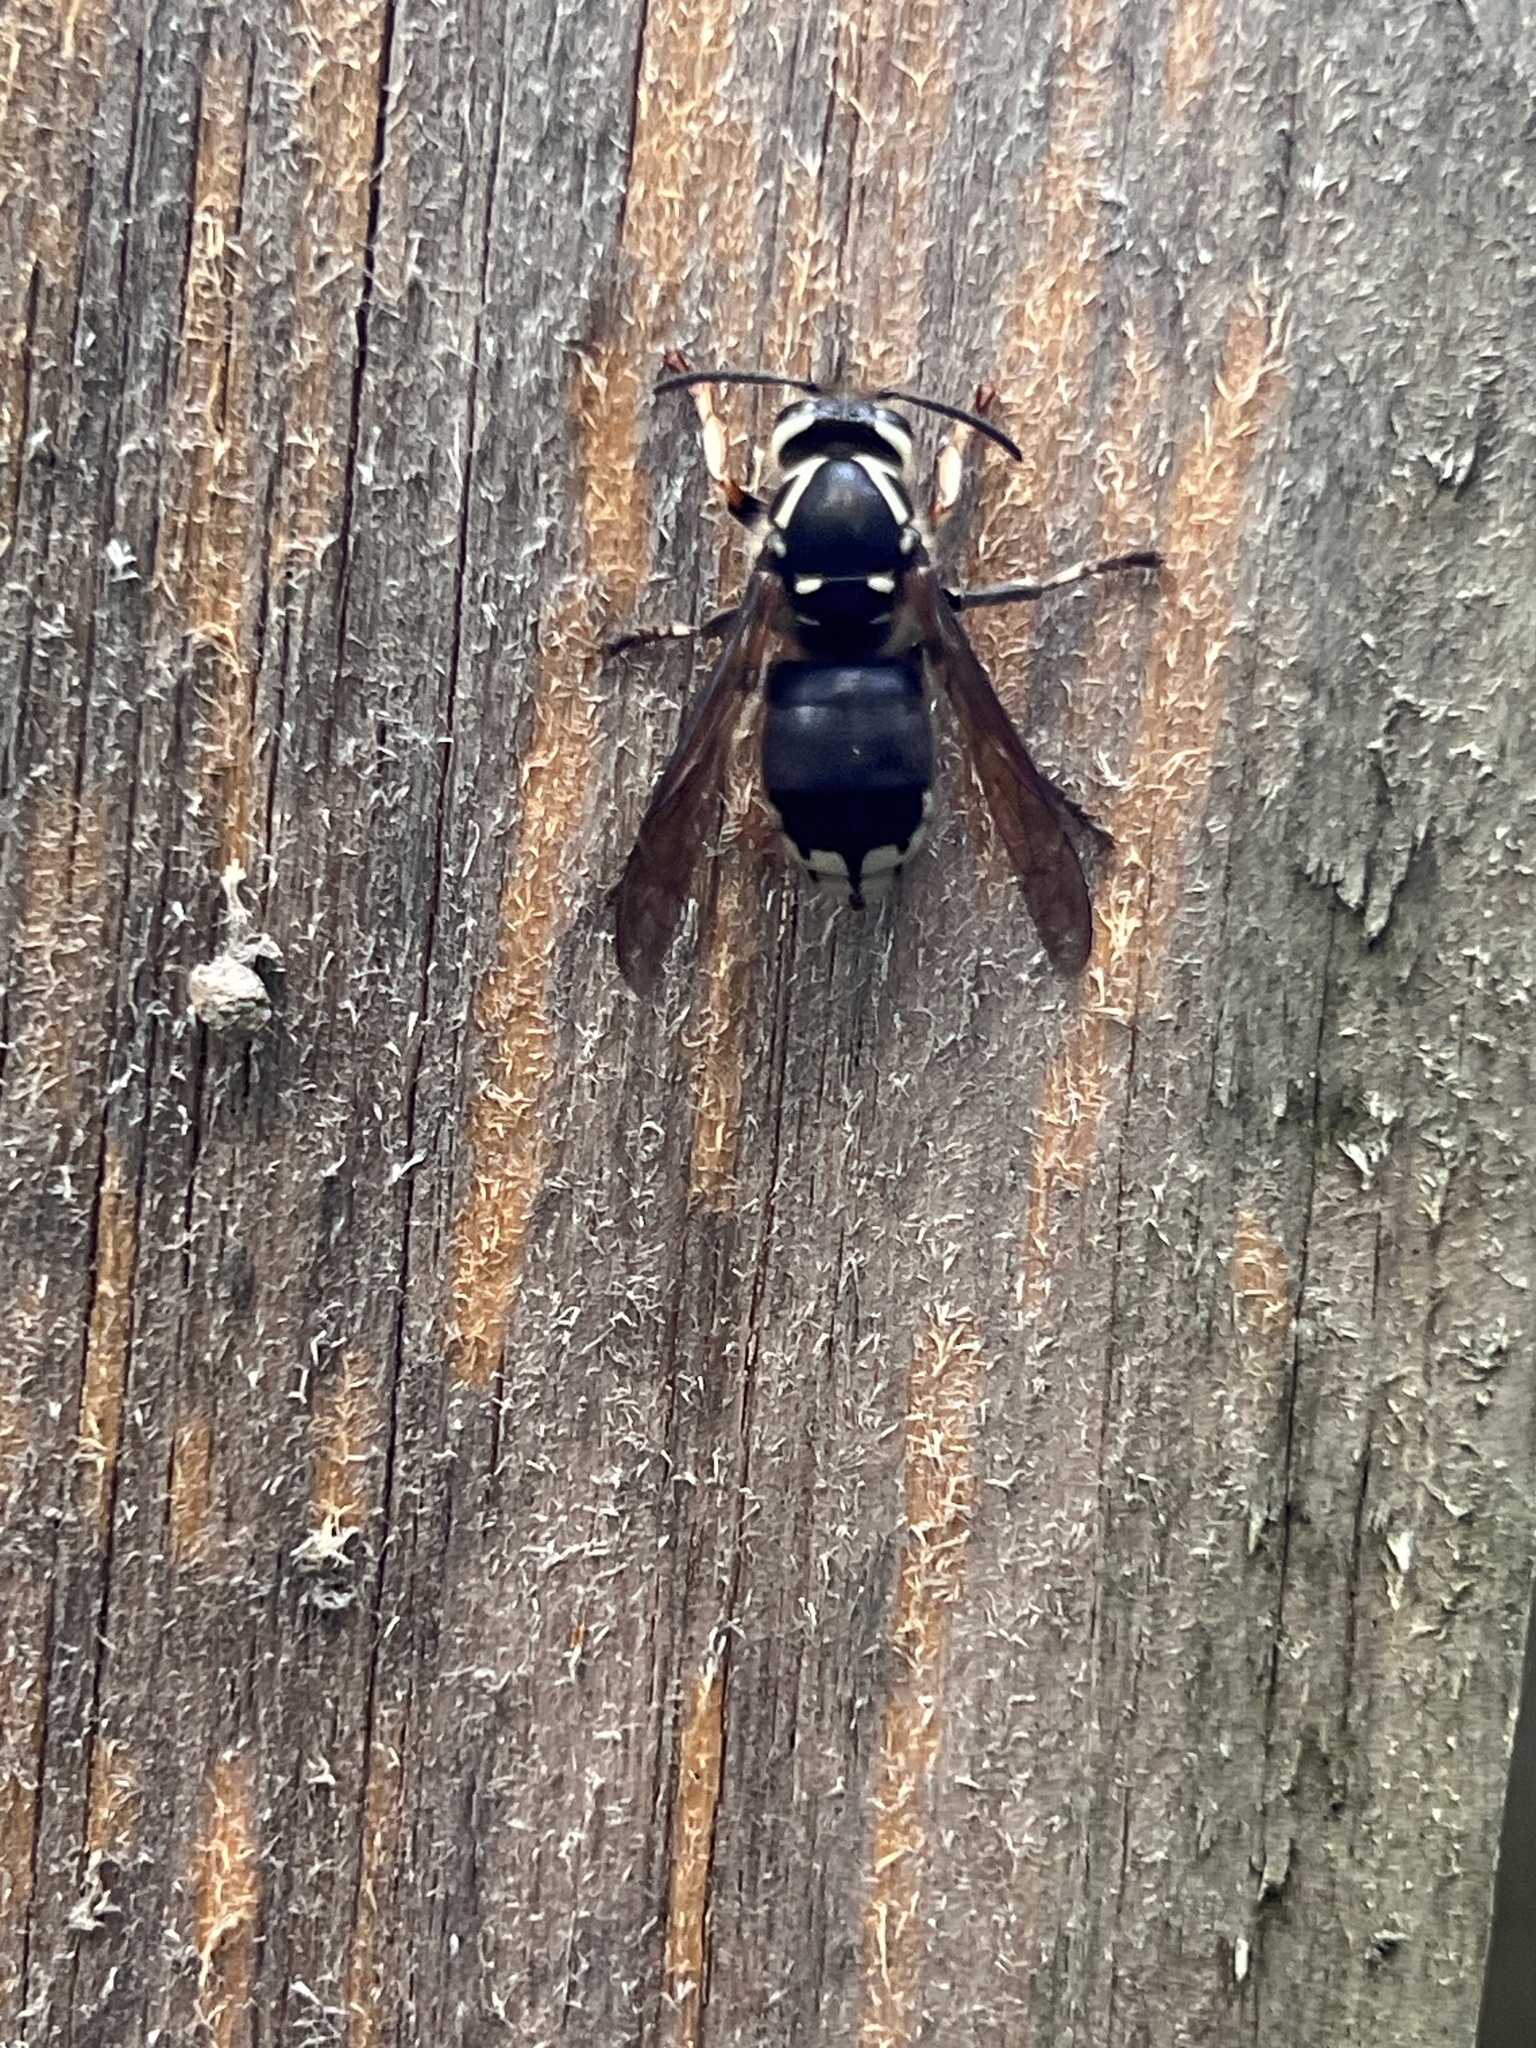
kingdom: Animalia
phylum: Arthropoda
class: Insecta
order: Hymenoptera
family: Vespidae
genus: Dolichovespula
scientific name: Dolichovespula maculata
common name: Bald-faced hornet
